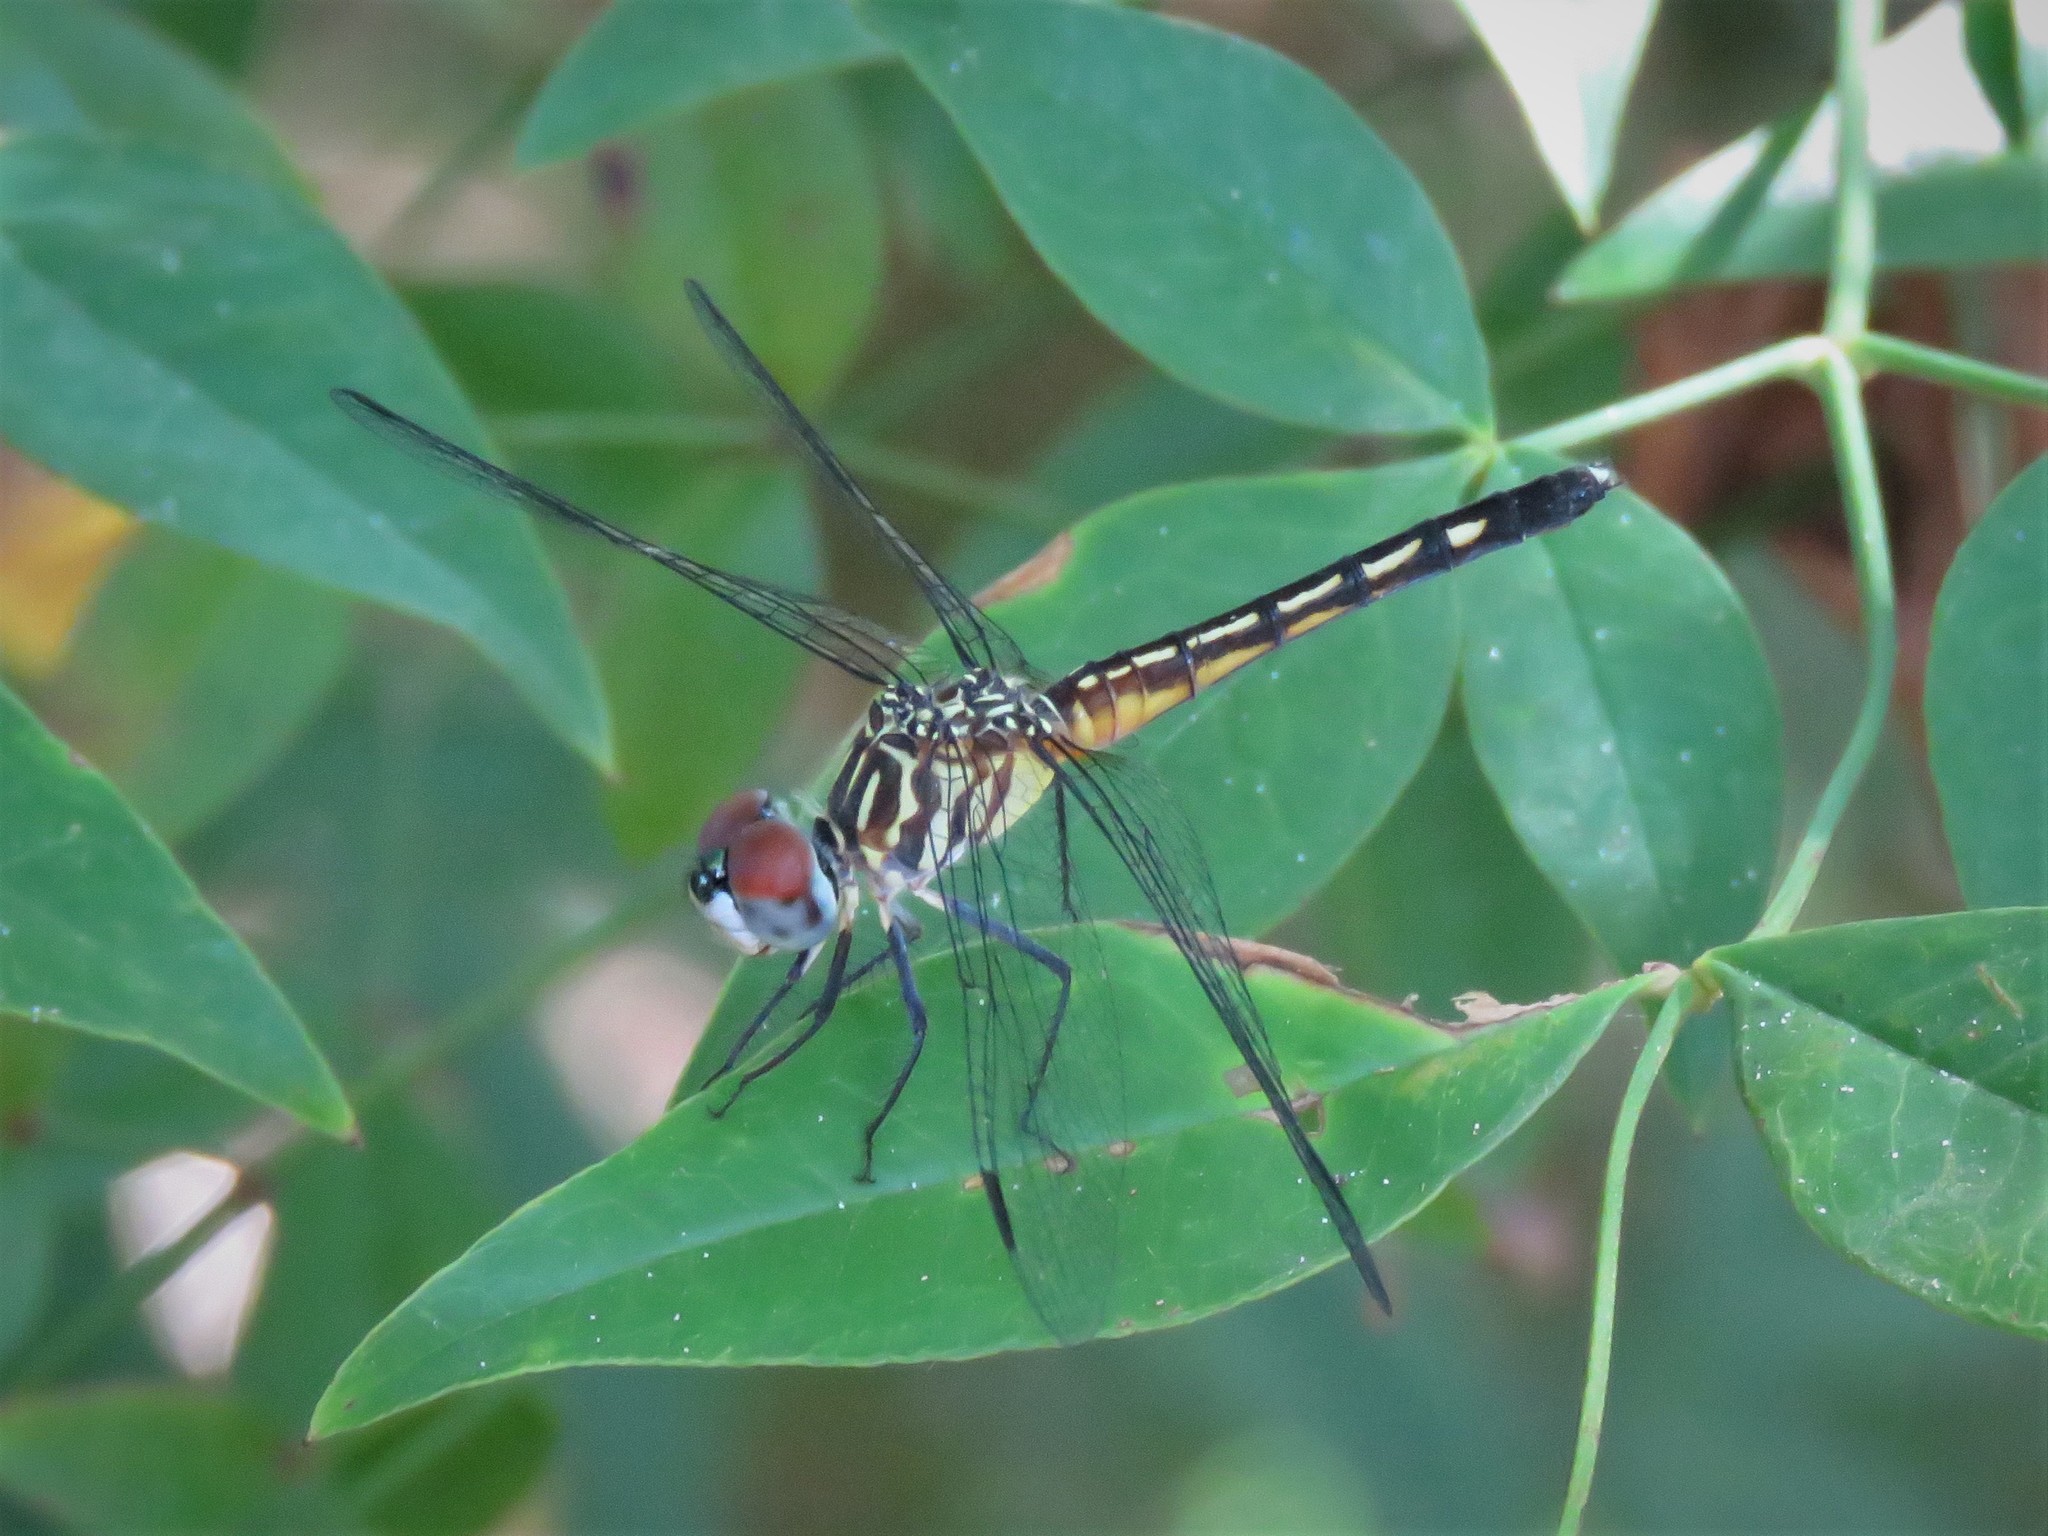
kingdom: Animalia
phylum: Arthropoda
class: Insecta
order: Odonata
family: Libellulidae
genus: Pachydiplax
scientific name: Pachydiplax longipennis
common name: Blue dasher
